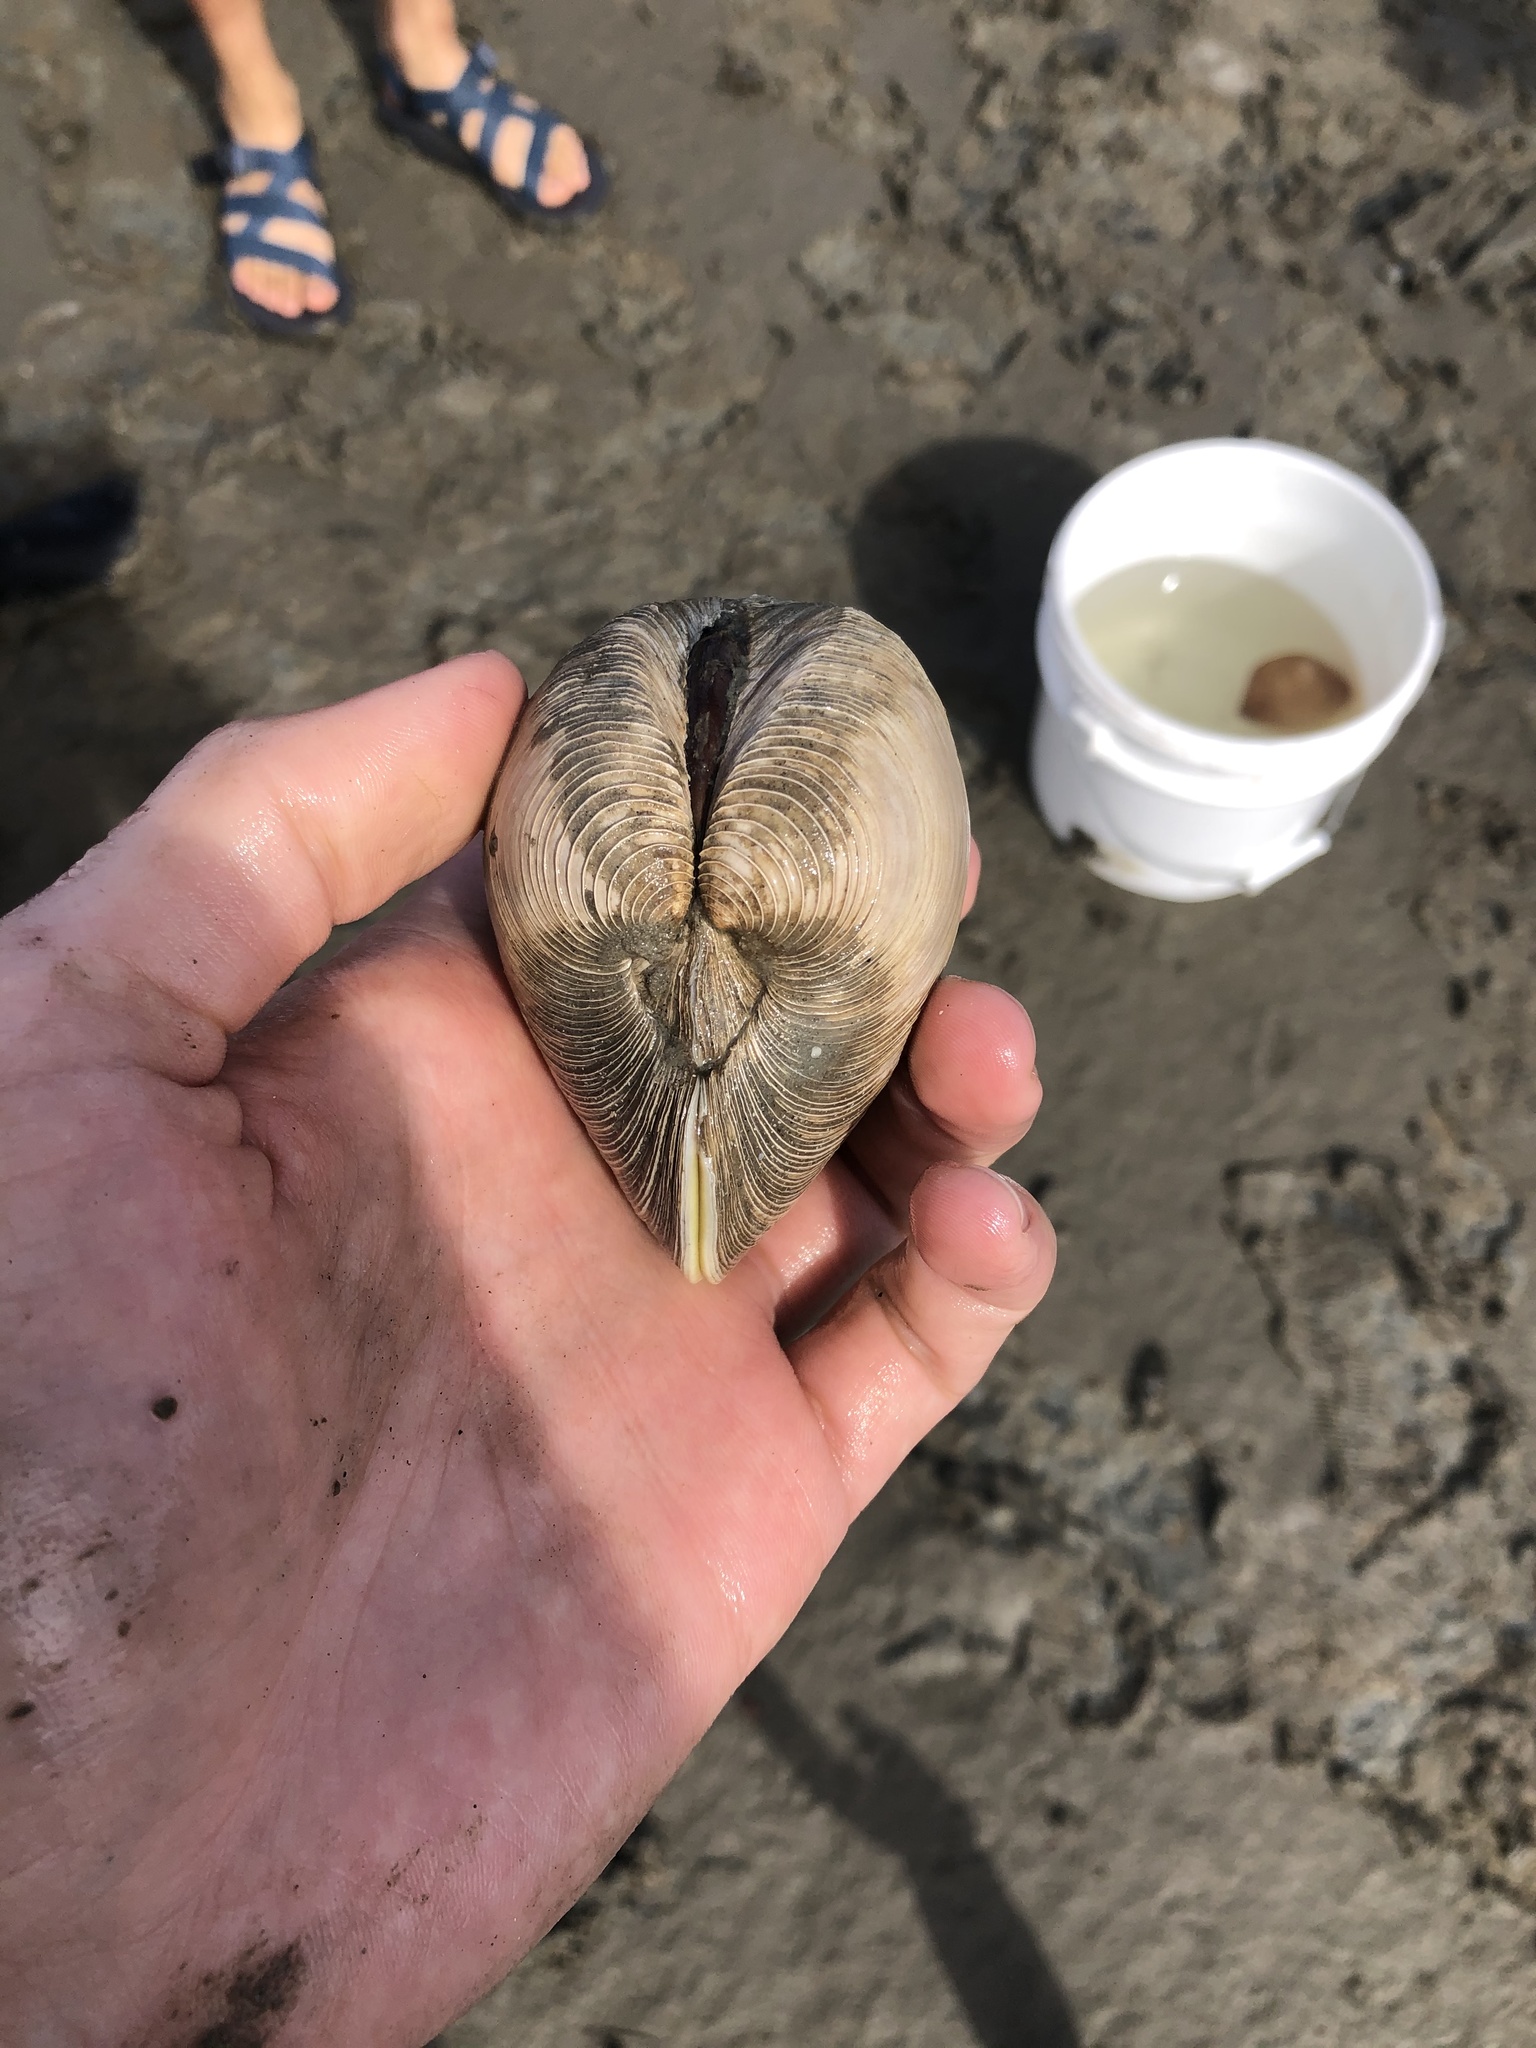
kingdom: Animalia
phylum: Mollusca
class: Bivalvia
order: Venerida
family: Veneridae
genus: Mercenaria
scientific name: Mercenaria mercenaria
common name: American hard-shelled clam
